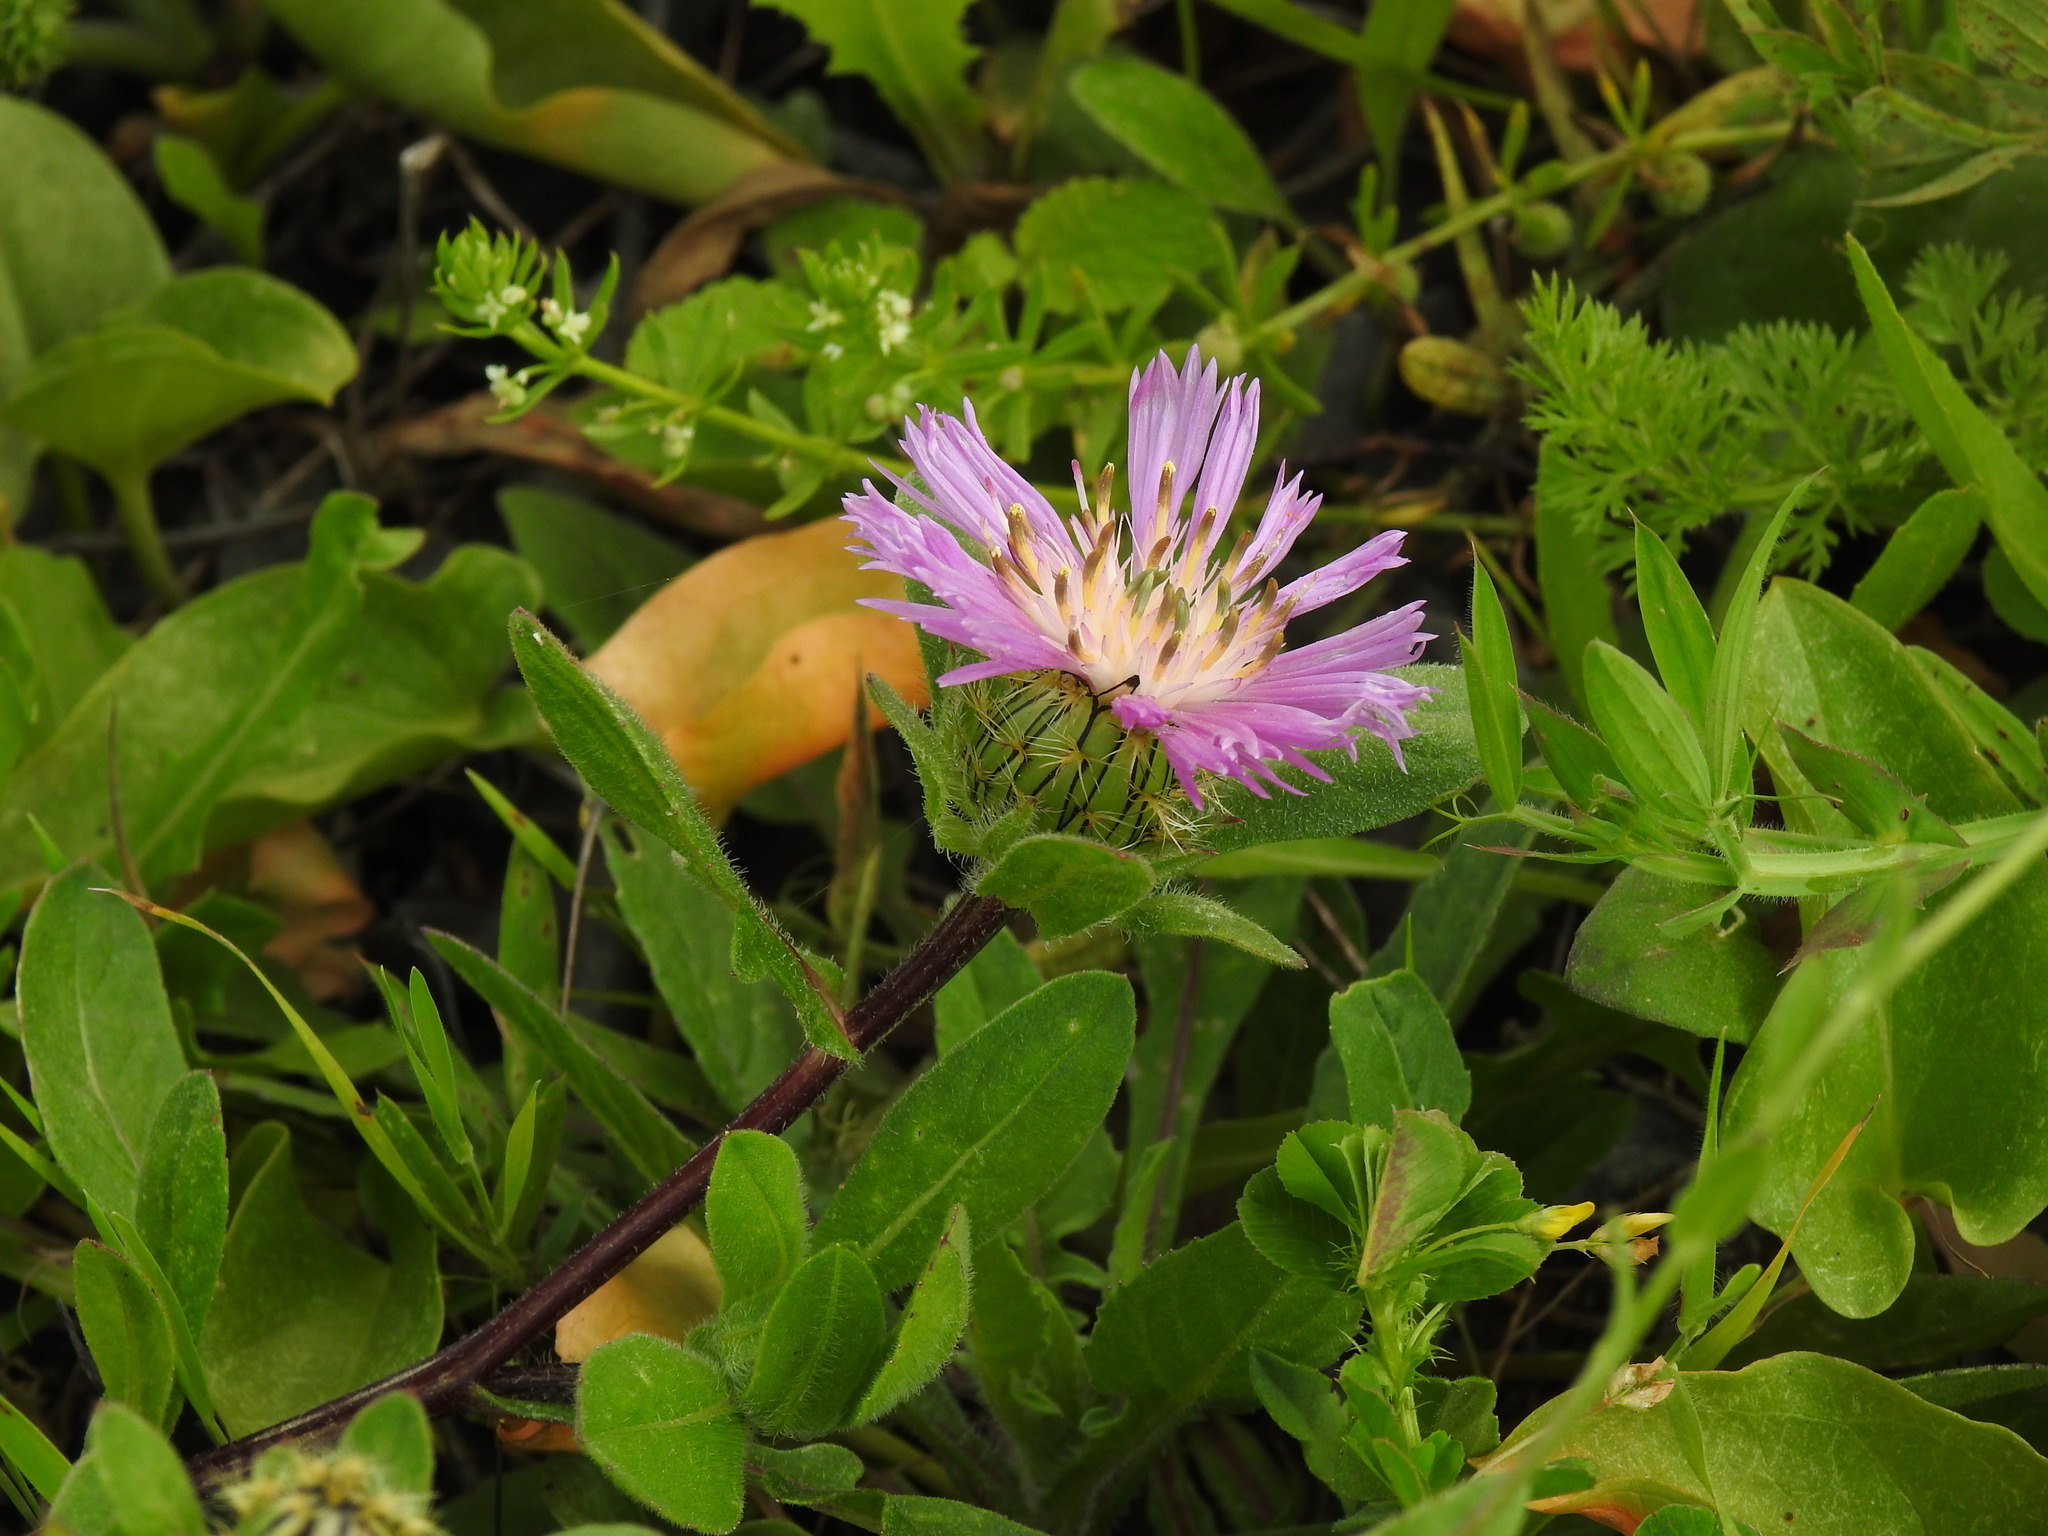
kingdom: Plantae
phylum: Tracheophyta
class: Magnoliopsida
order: Asterales
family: Asteraceae
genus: Centaurea
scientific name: Centaurea pullata
